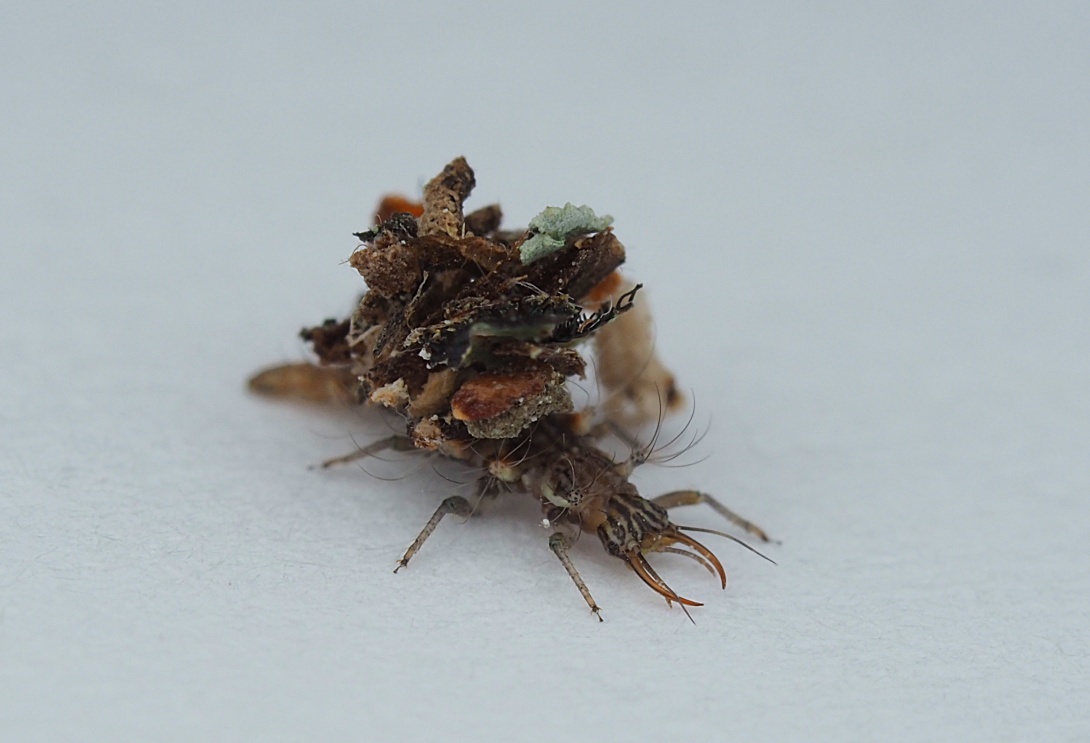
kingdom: Animalia
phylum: Arthropoda
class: Insecta
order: Neuroptera
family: Chrysopidae
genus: Mallada
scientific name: Mallada basalis
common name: Green lacewing
